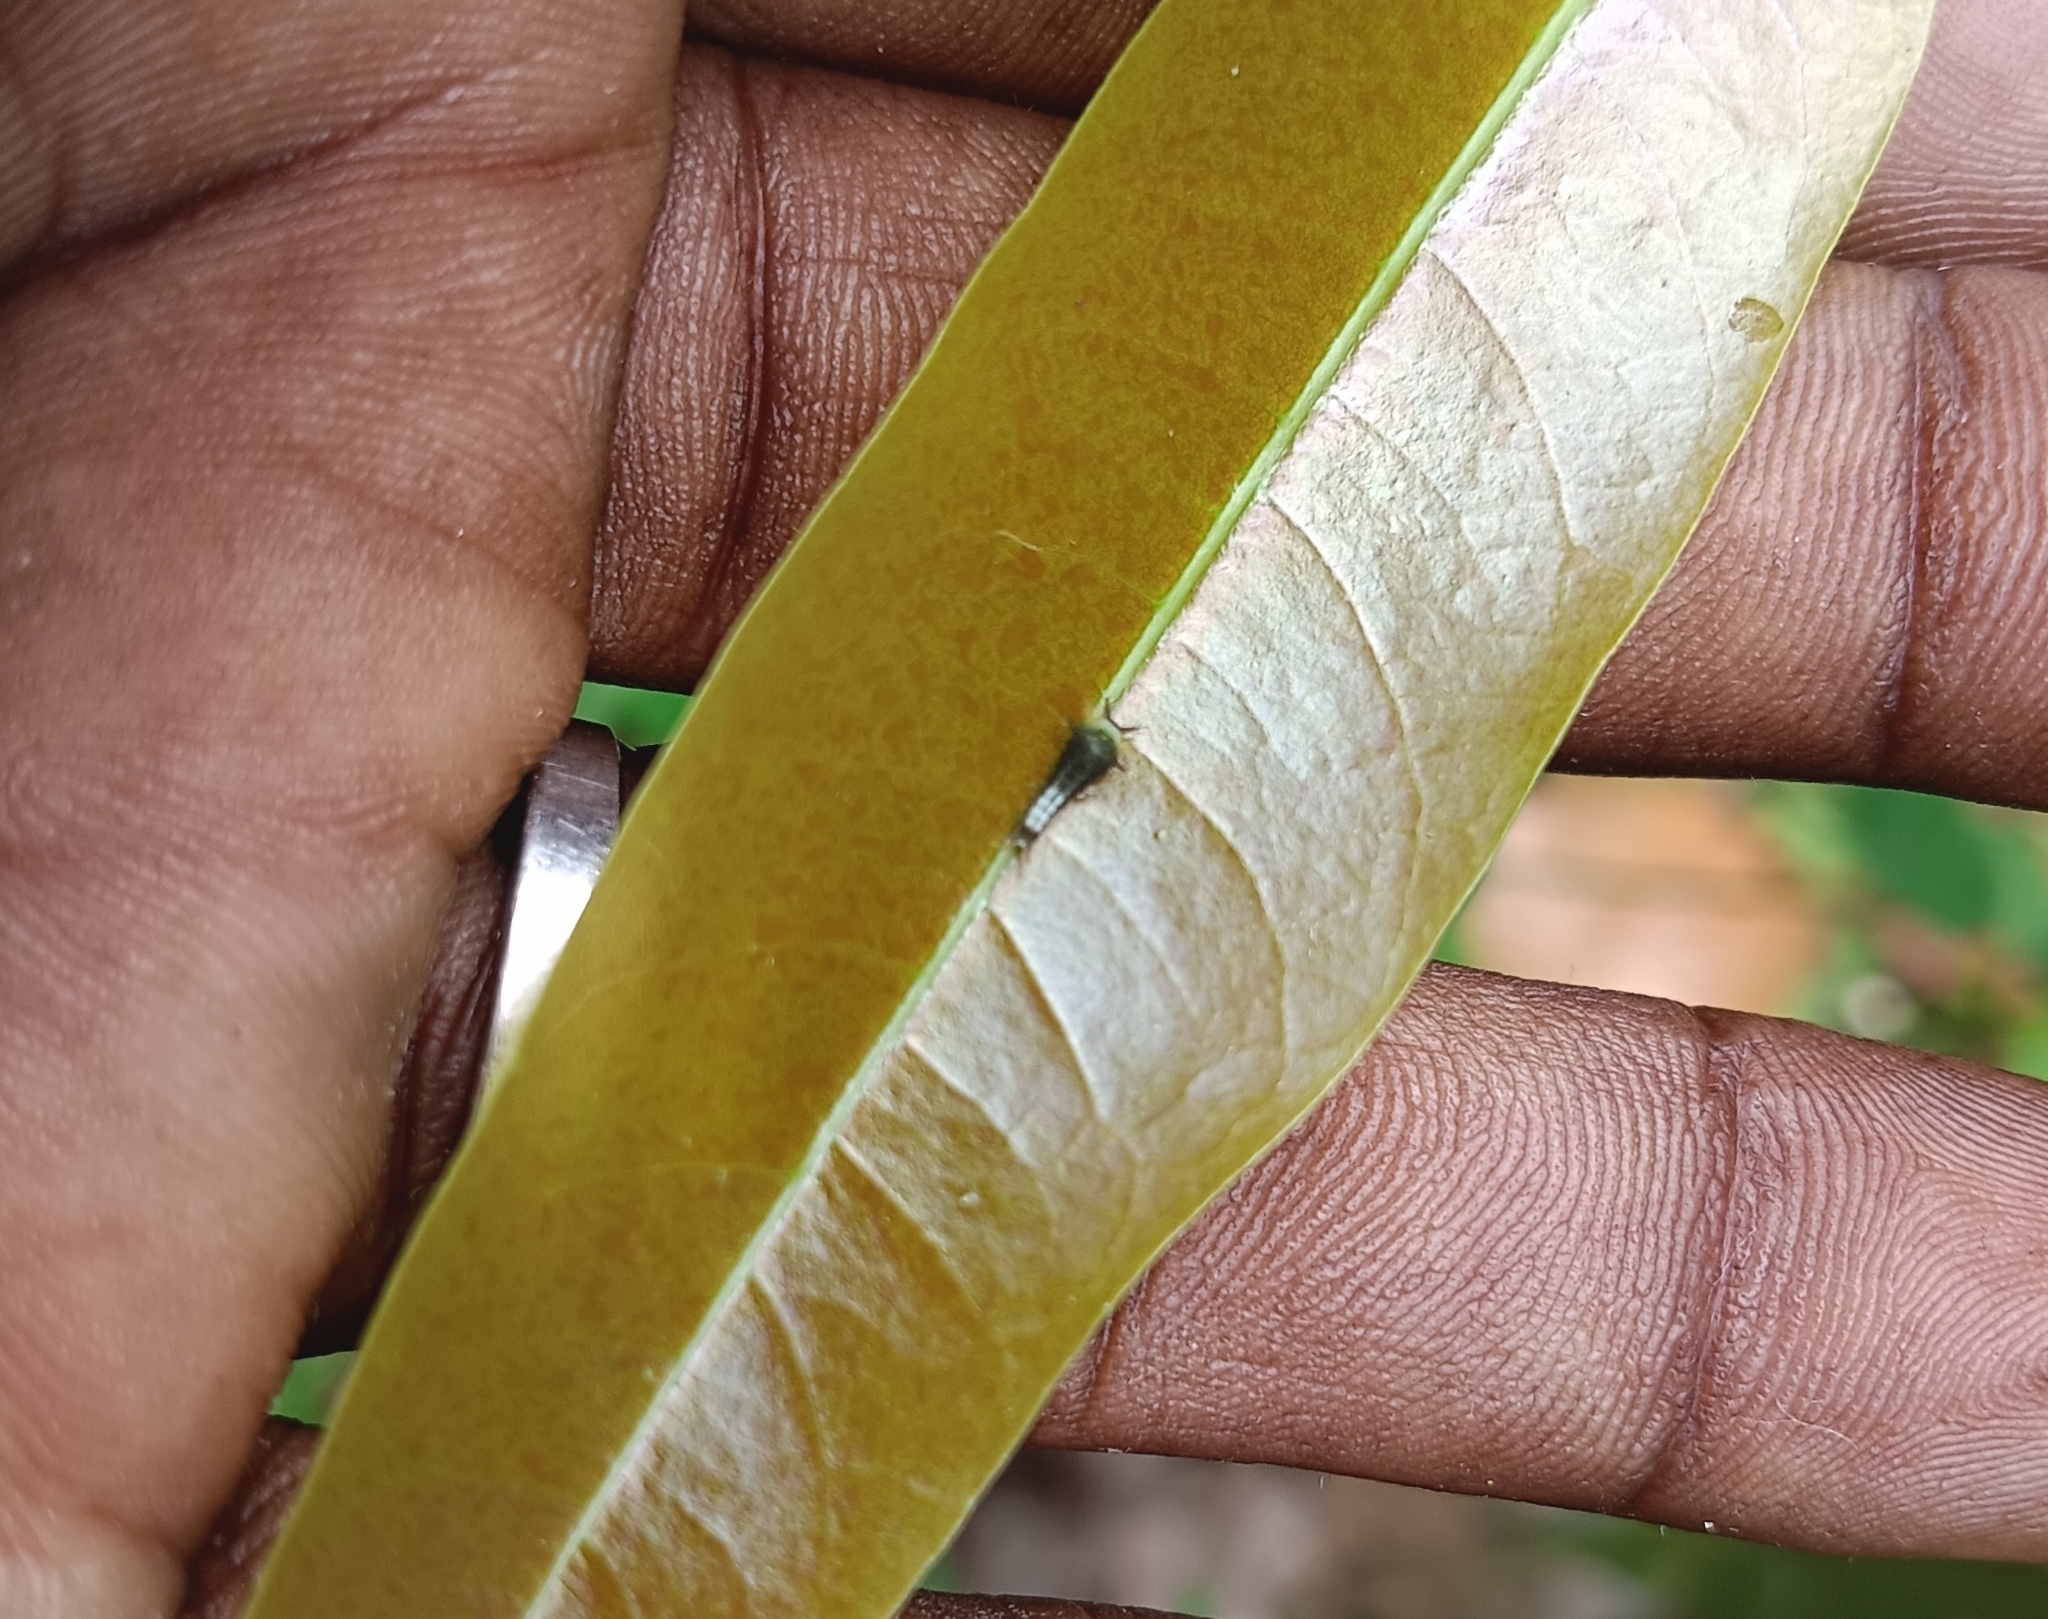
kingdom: Animalia
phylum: Arthropoda
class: Insecta
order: Lepidoptera
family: Papilionidae
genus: Graphium
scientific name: Graphium agamemnon
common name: Tailed jay
